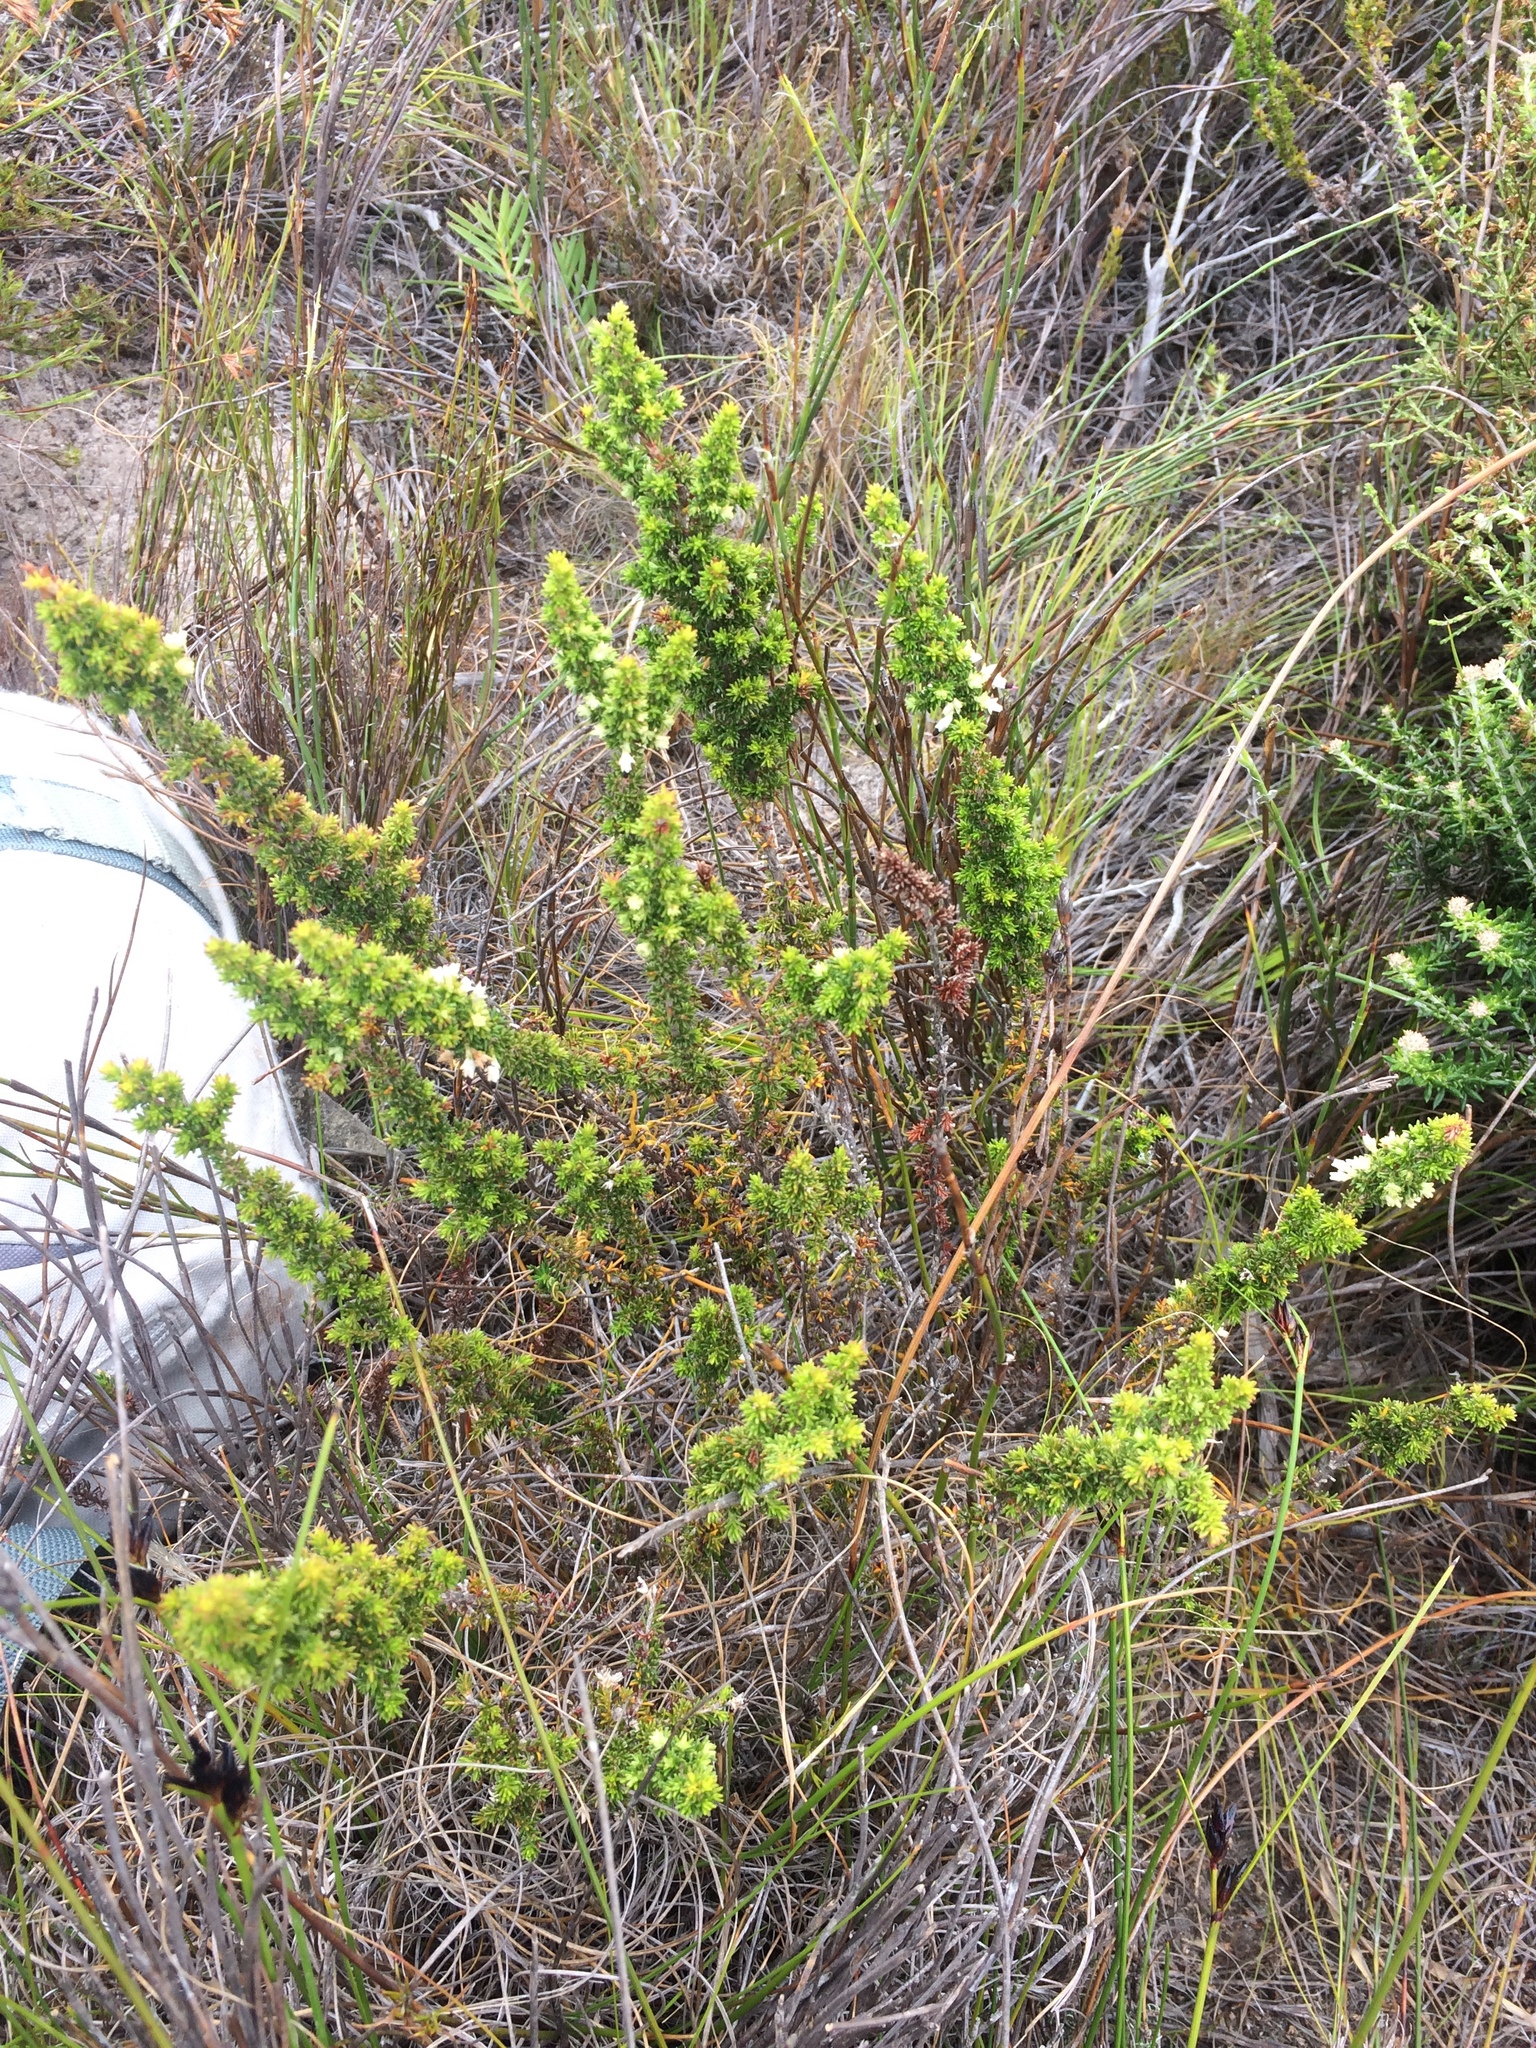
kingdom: Plantae
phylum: Tracheophyta
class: Magnoliopsida
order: Ericales
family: Ericaceae
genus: Erica
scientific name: Erica lasciva
